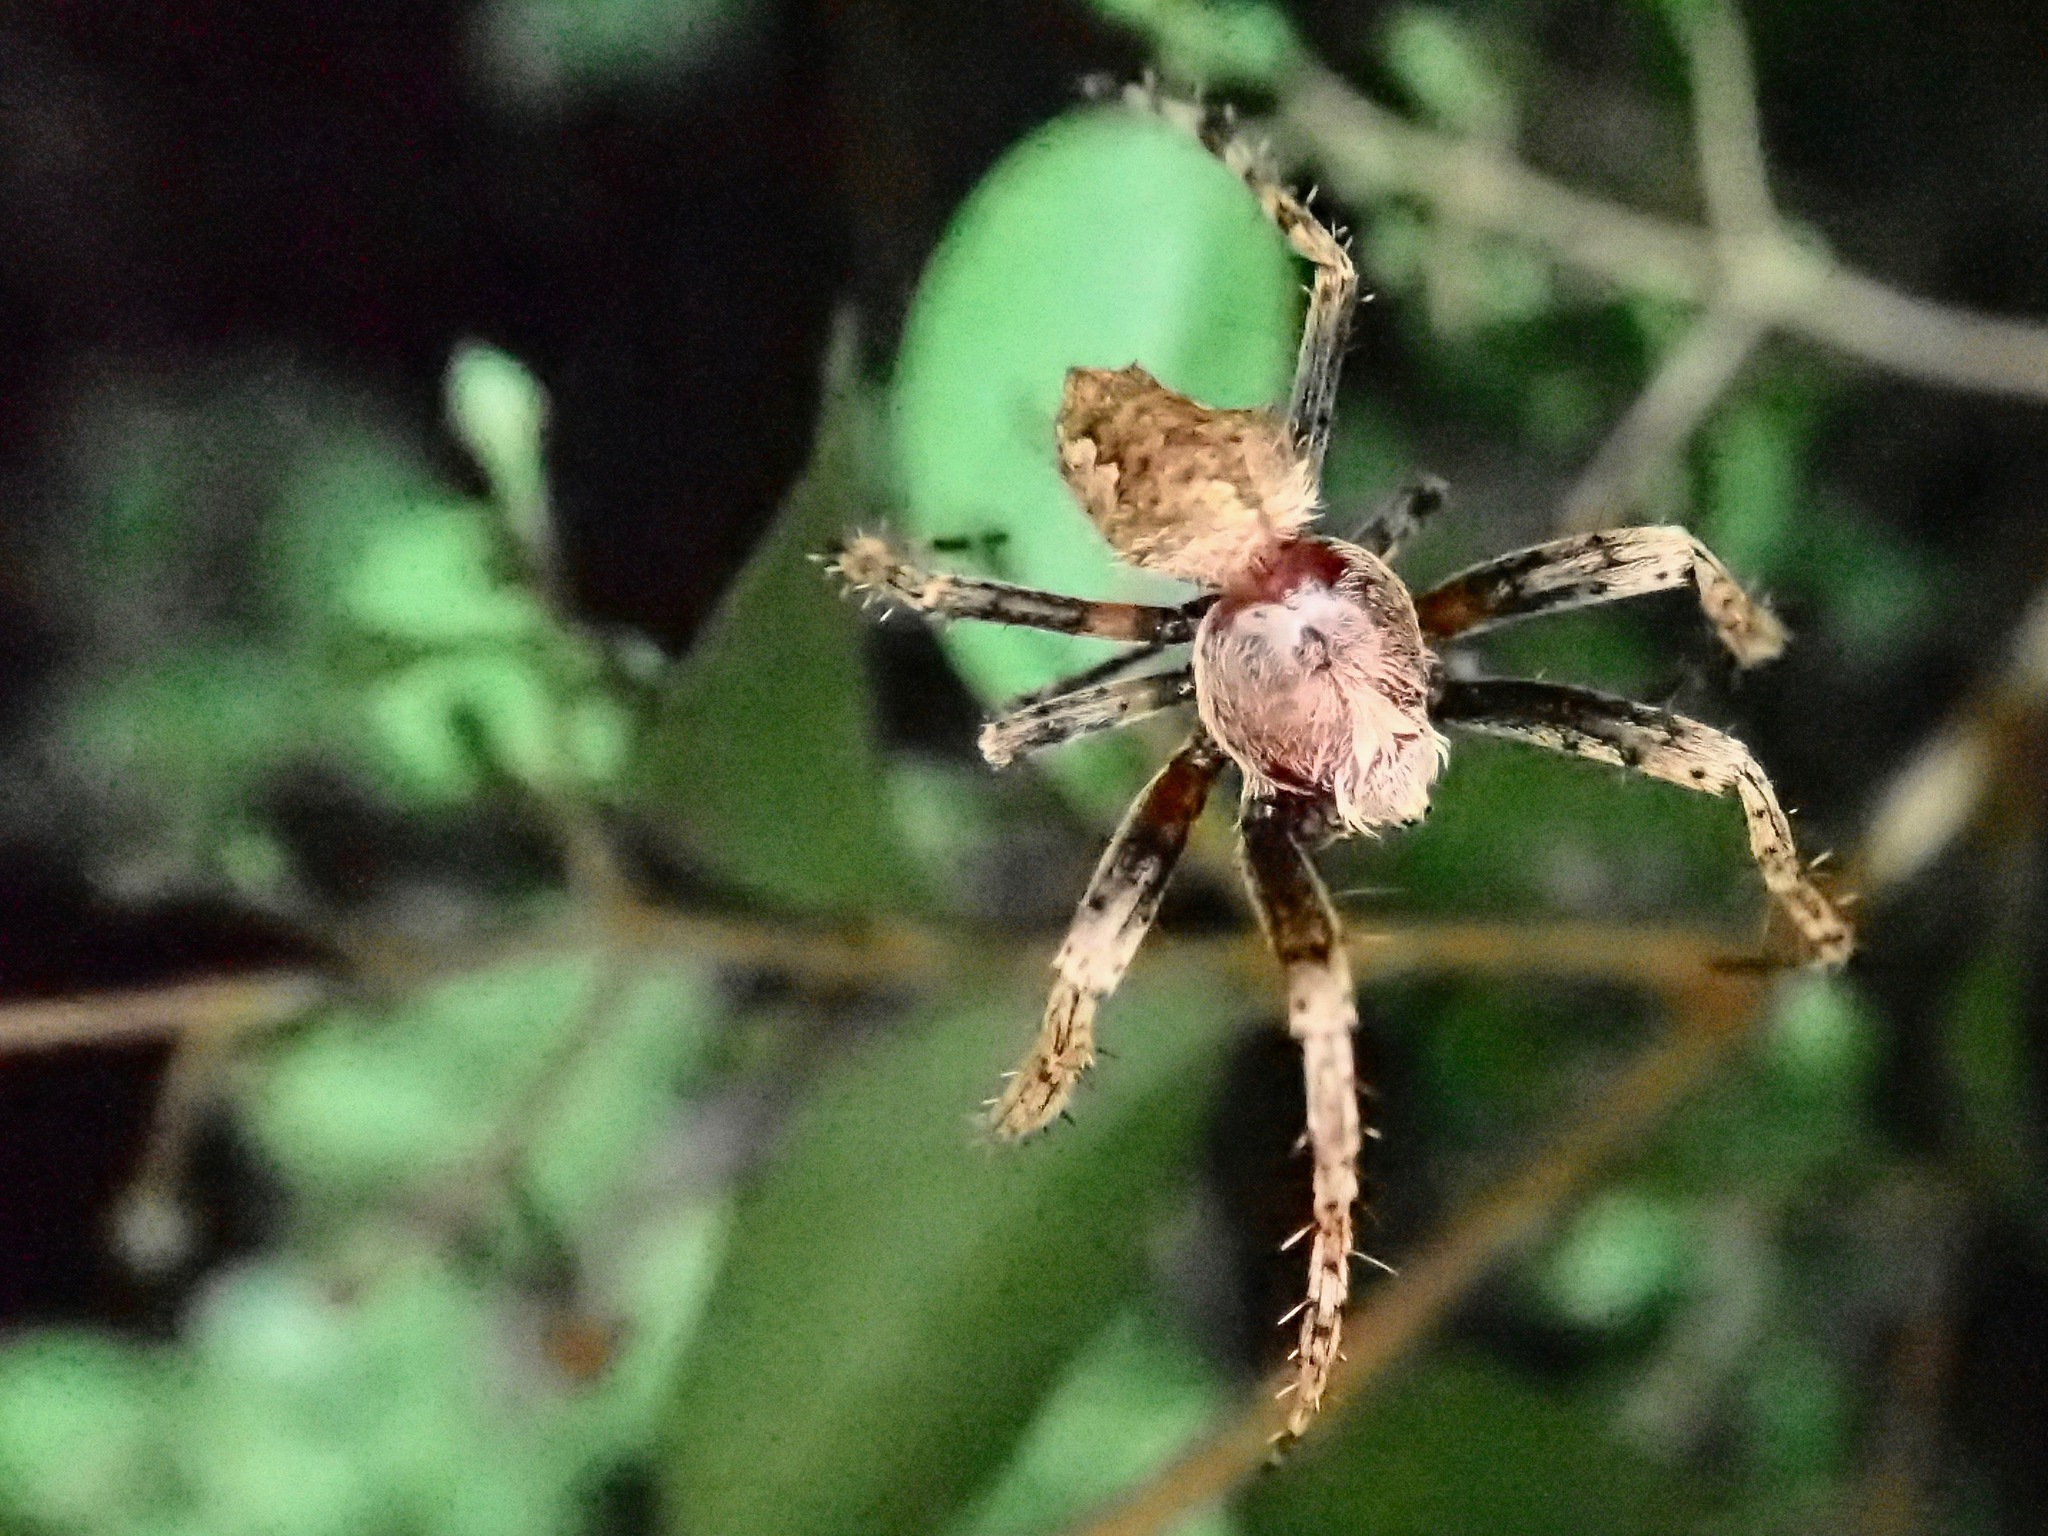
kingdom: Animalia
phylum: Arthropoda
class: Arachnida
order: Araneae
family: Araneidae
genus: Eriophora
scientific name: Eriophora pustulosa
